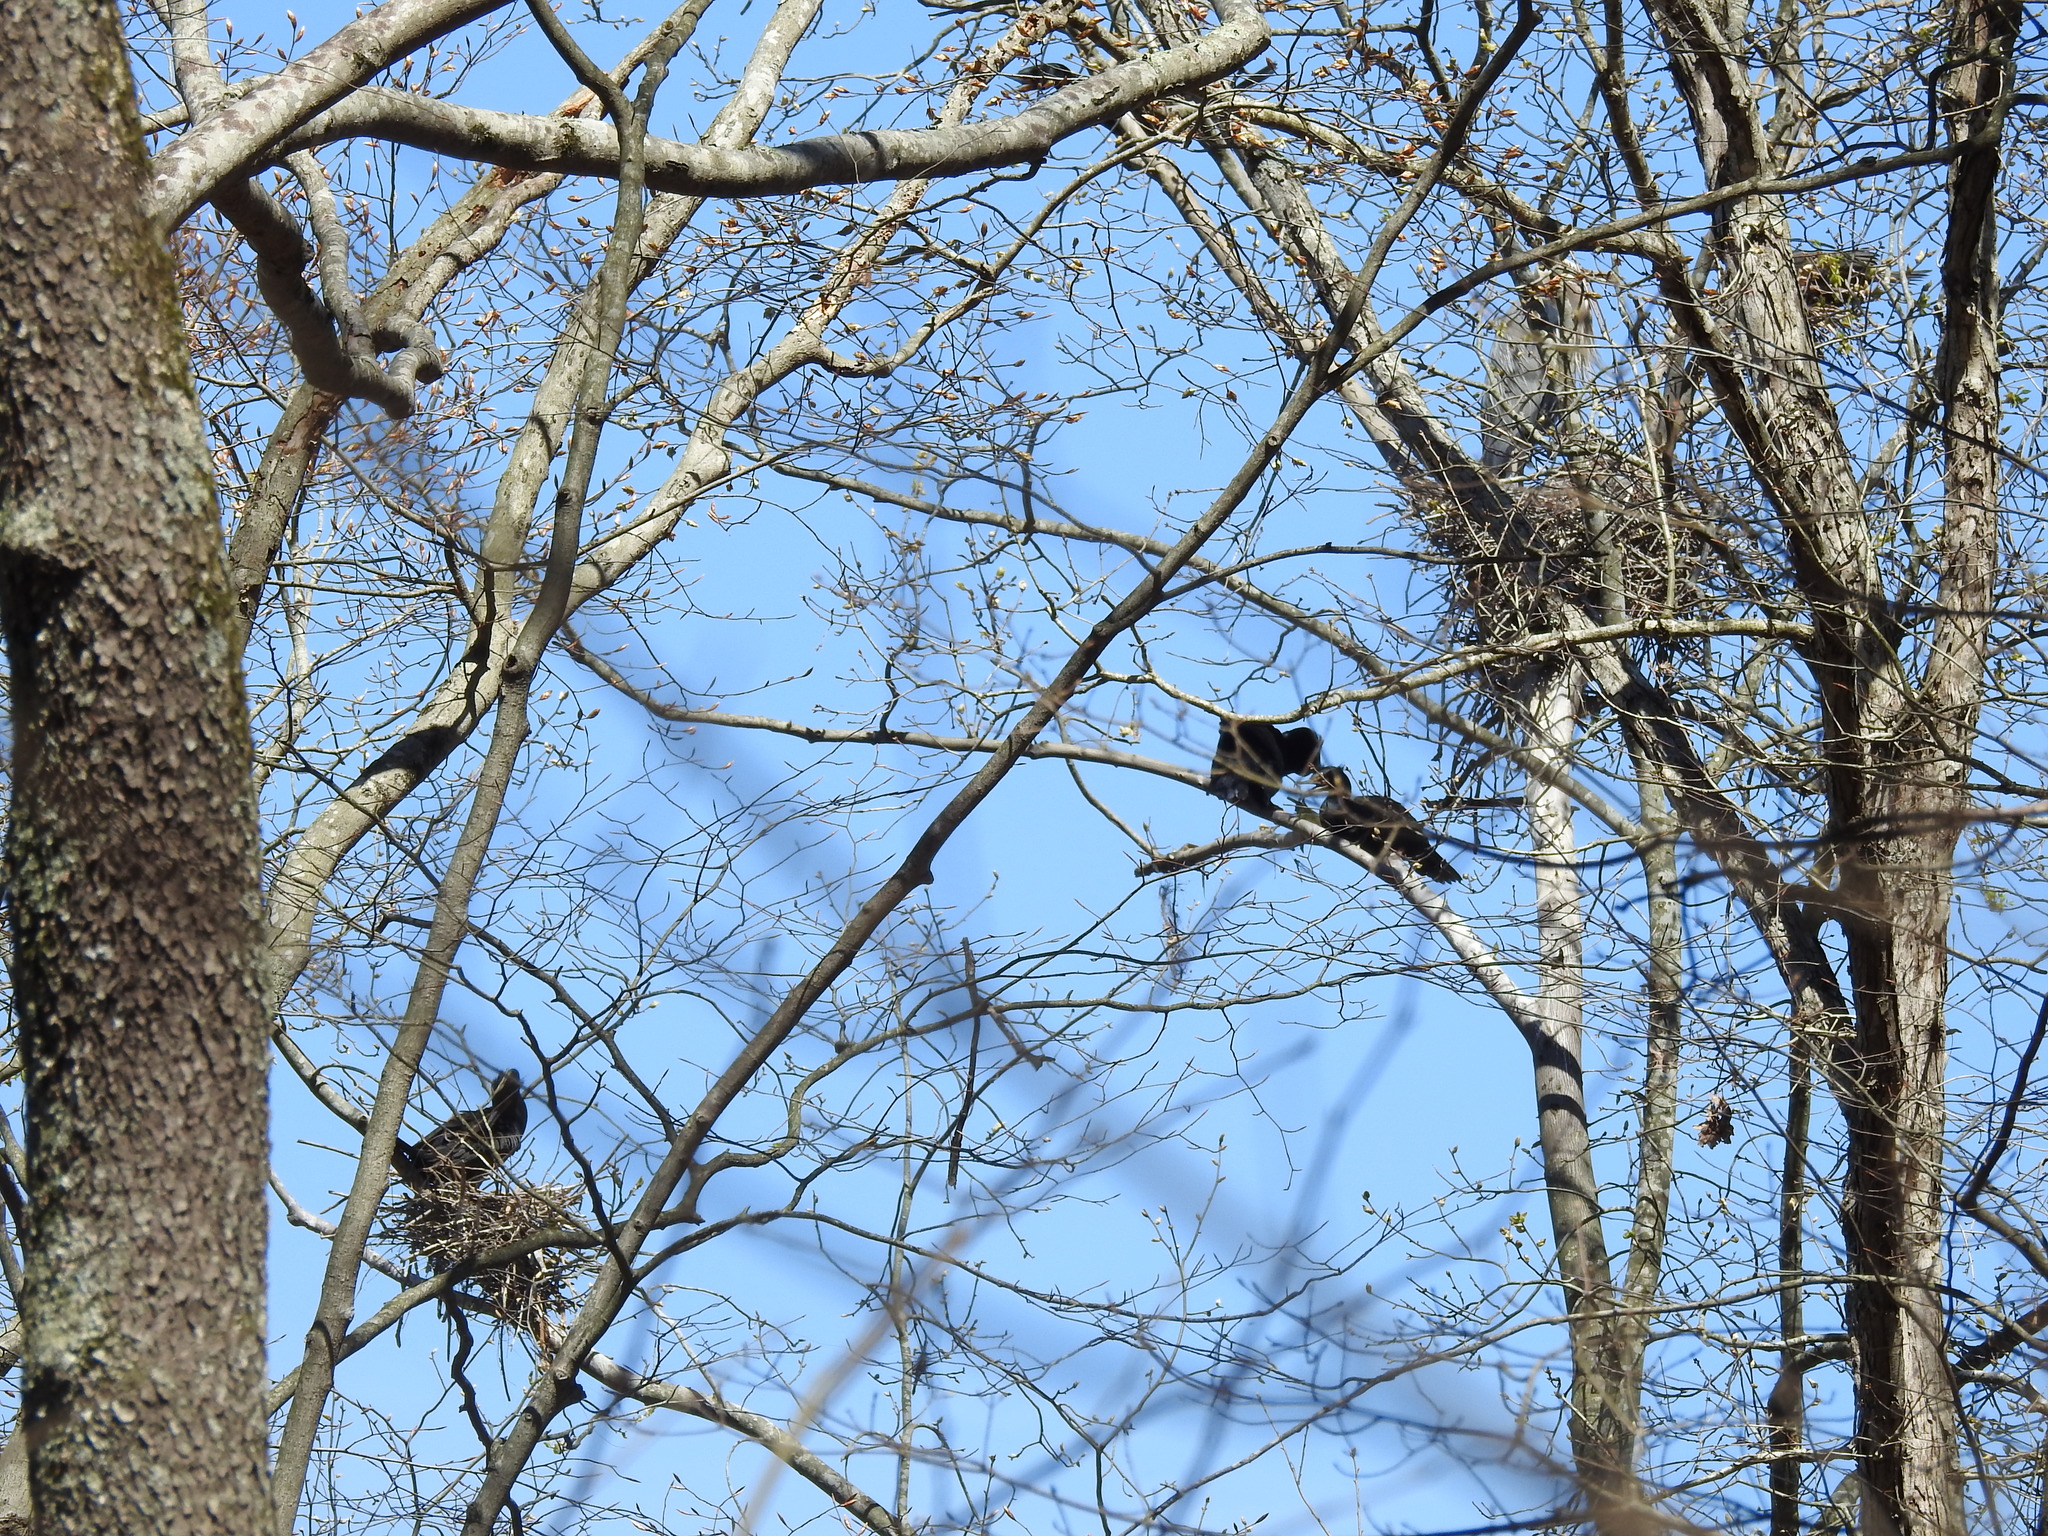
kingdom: Animalia
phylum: Chordata
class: Aves
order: Suliformes
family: Phalacrocoracidae
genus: Phalacrocorax
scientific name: Phalacrocorax auritus
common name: Double-crested cormorant
